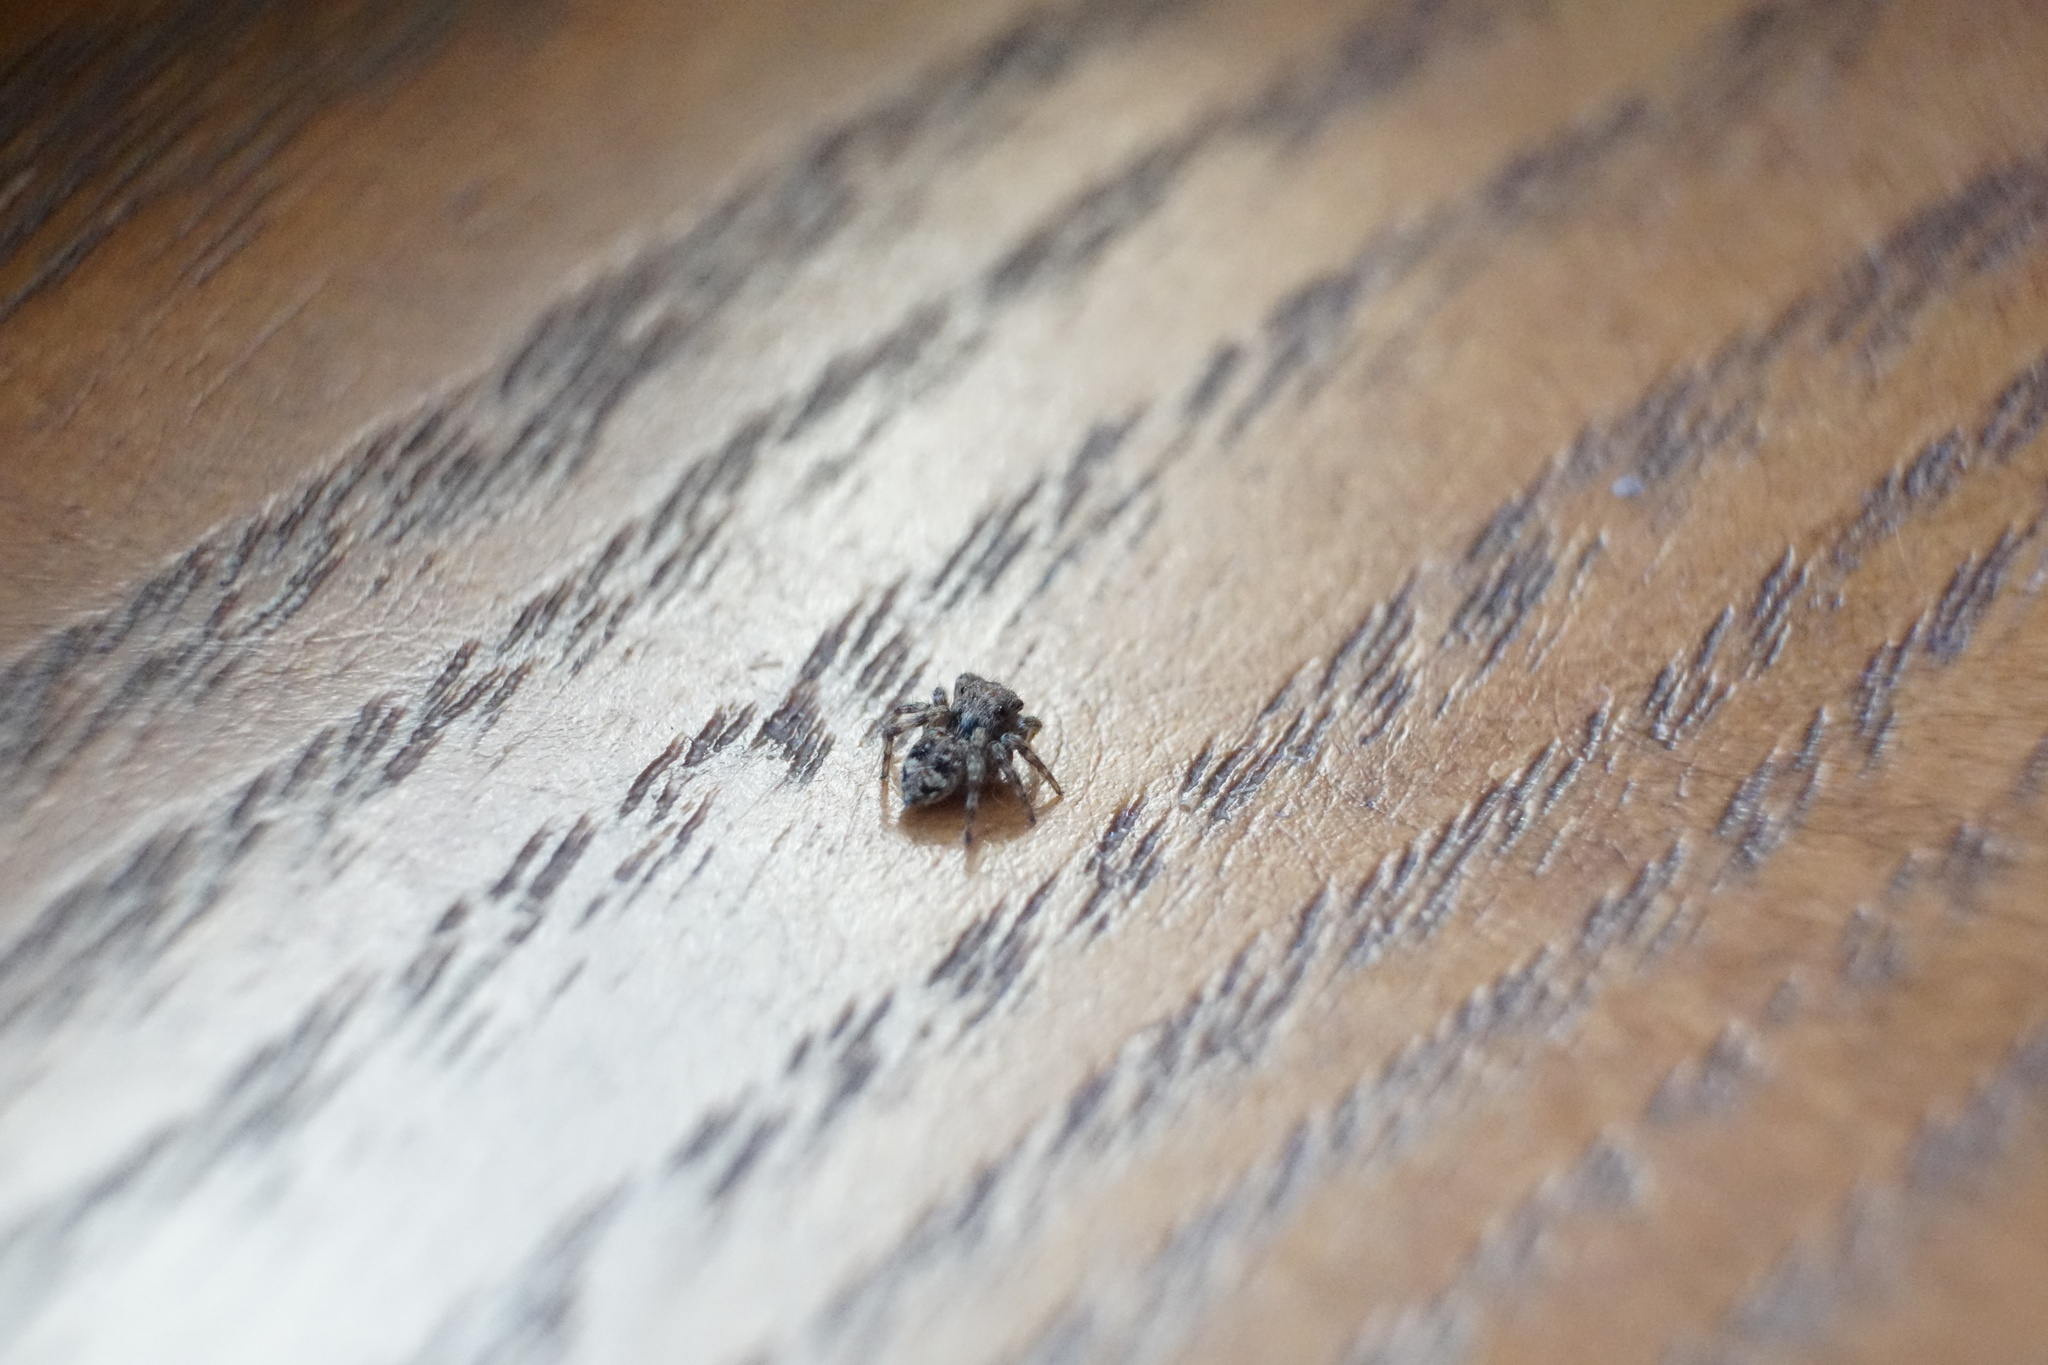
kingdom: Animalia
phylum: Arthropoda
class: Arachnida
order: Araneae
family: Salticidae
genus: Attulus
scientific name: Attulus fasciger
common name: Asiatic wall jumping spider
